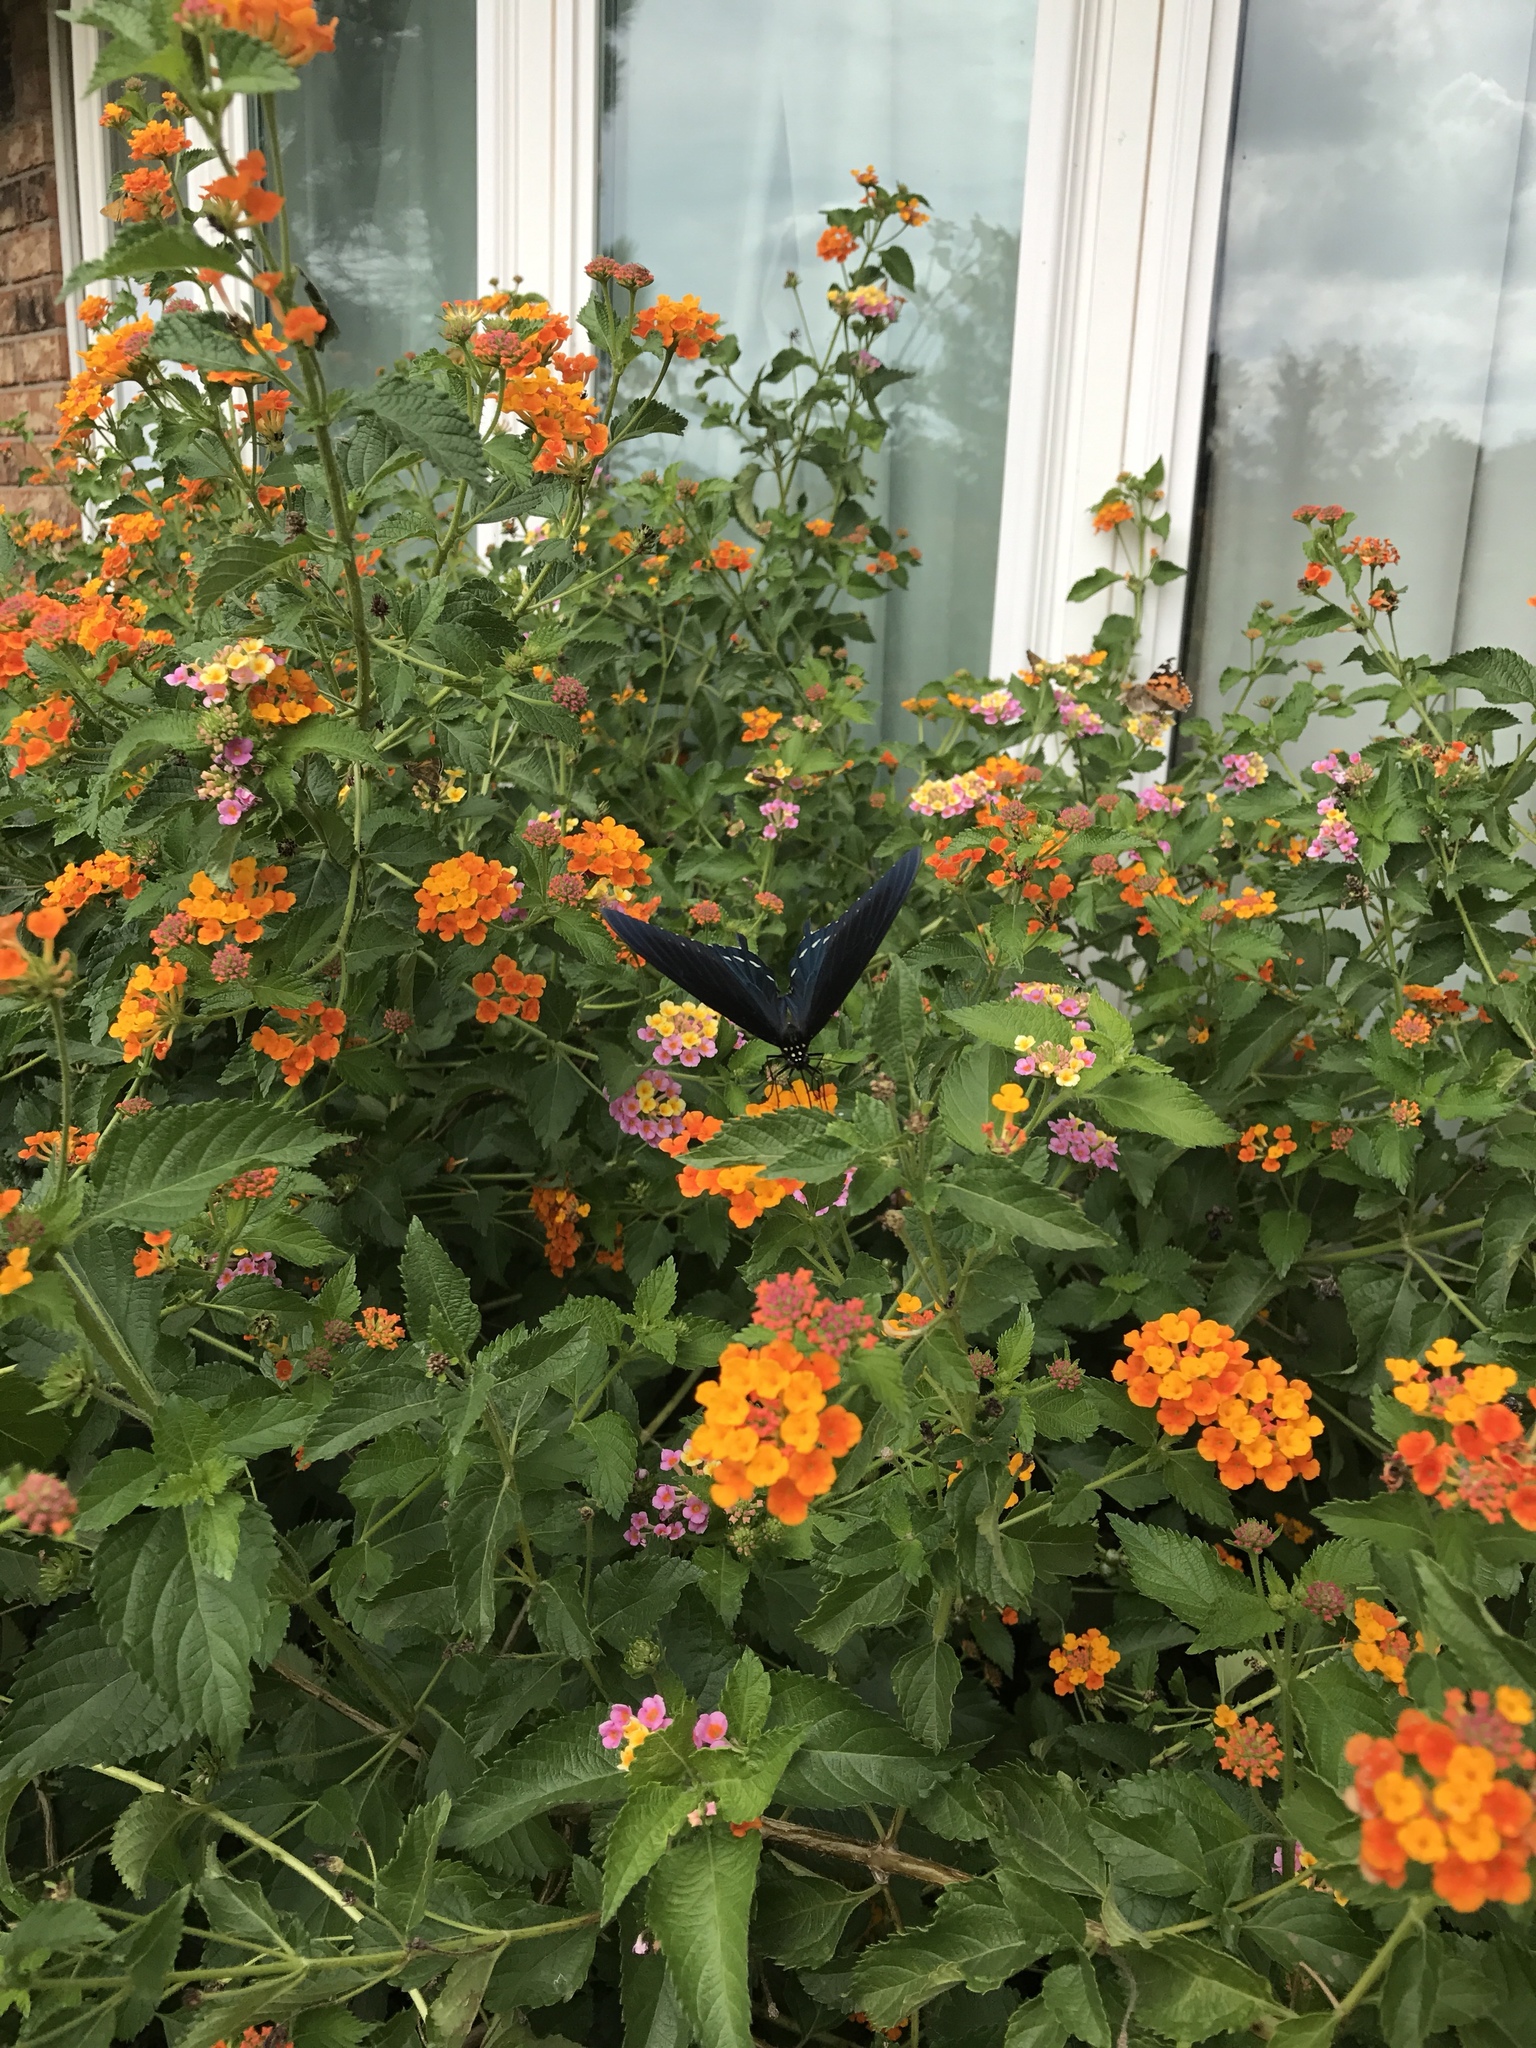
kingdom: Animalia
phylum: Arthropoda
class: Insecta
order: Lepidoptera
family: Papilionidae
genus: Battus
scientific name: Battus philenor
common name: Pipevine swallowtail
